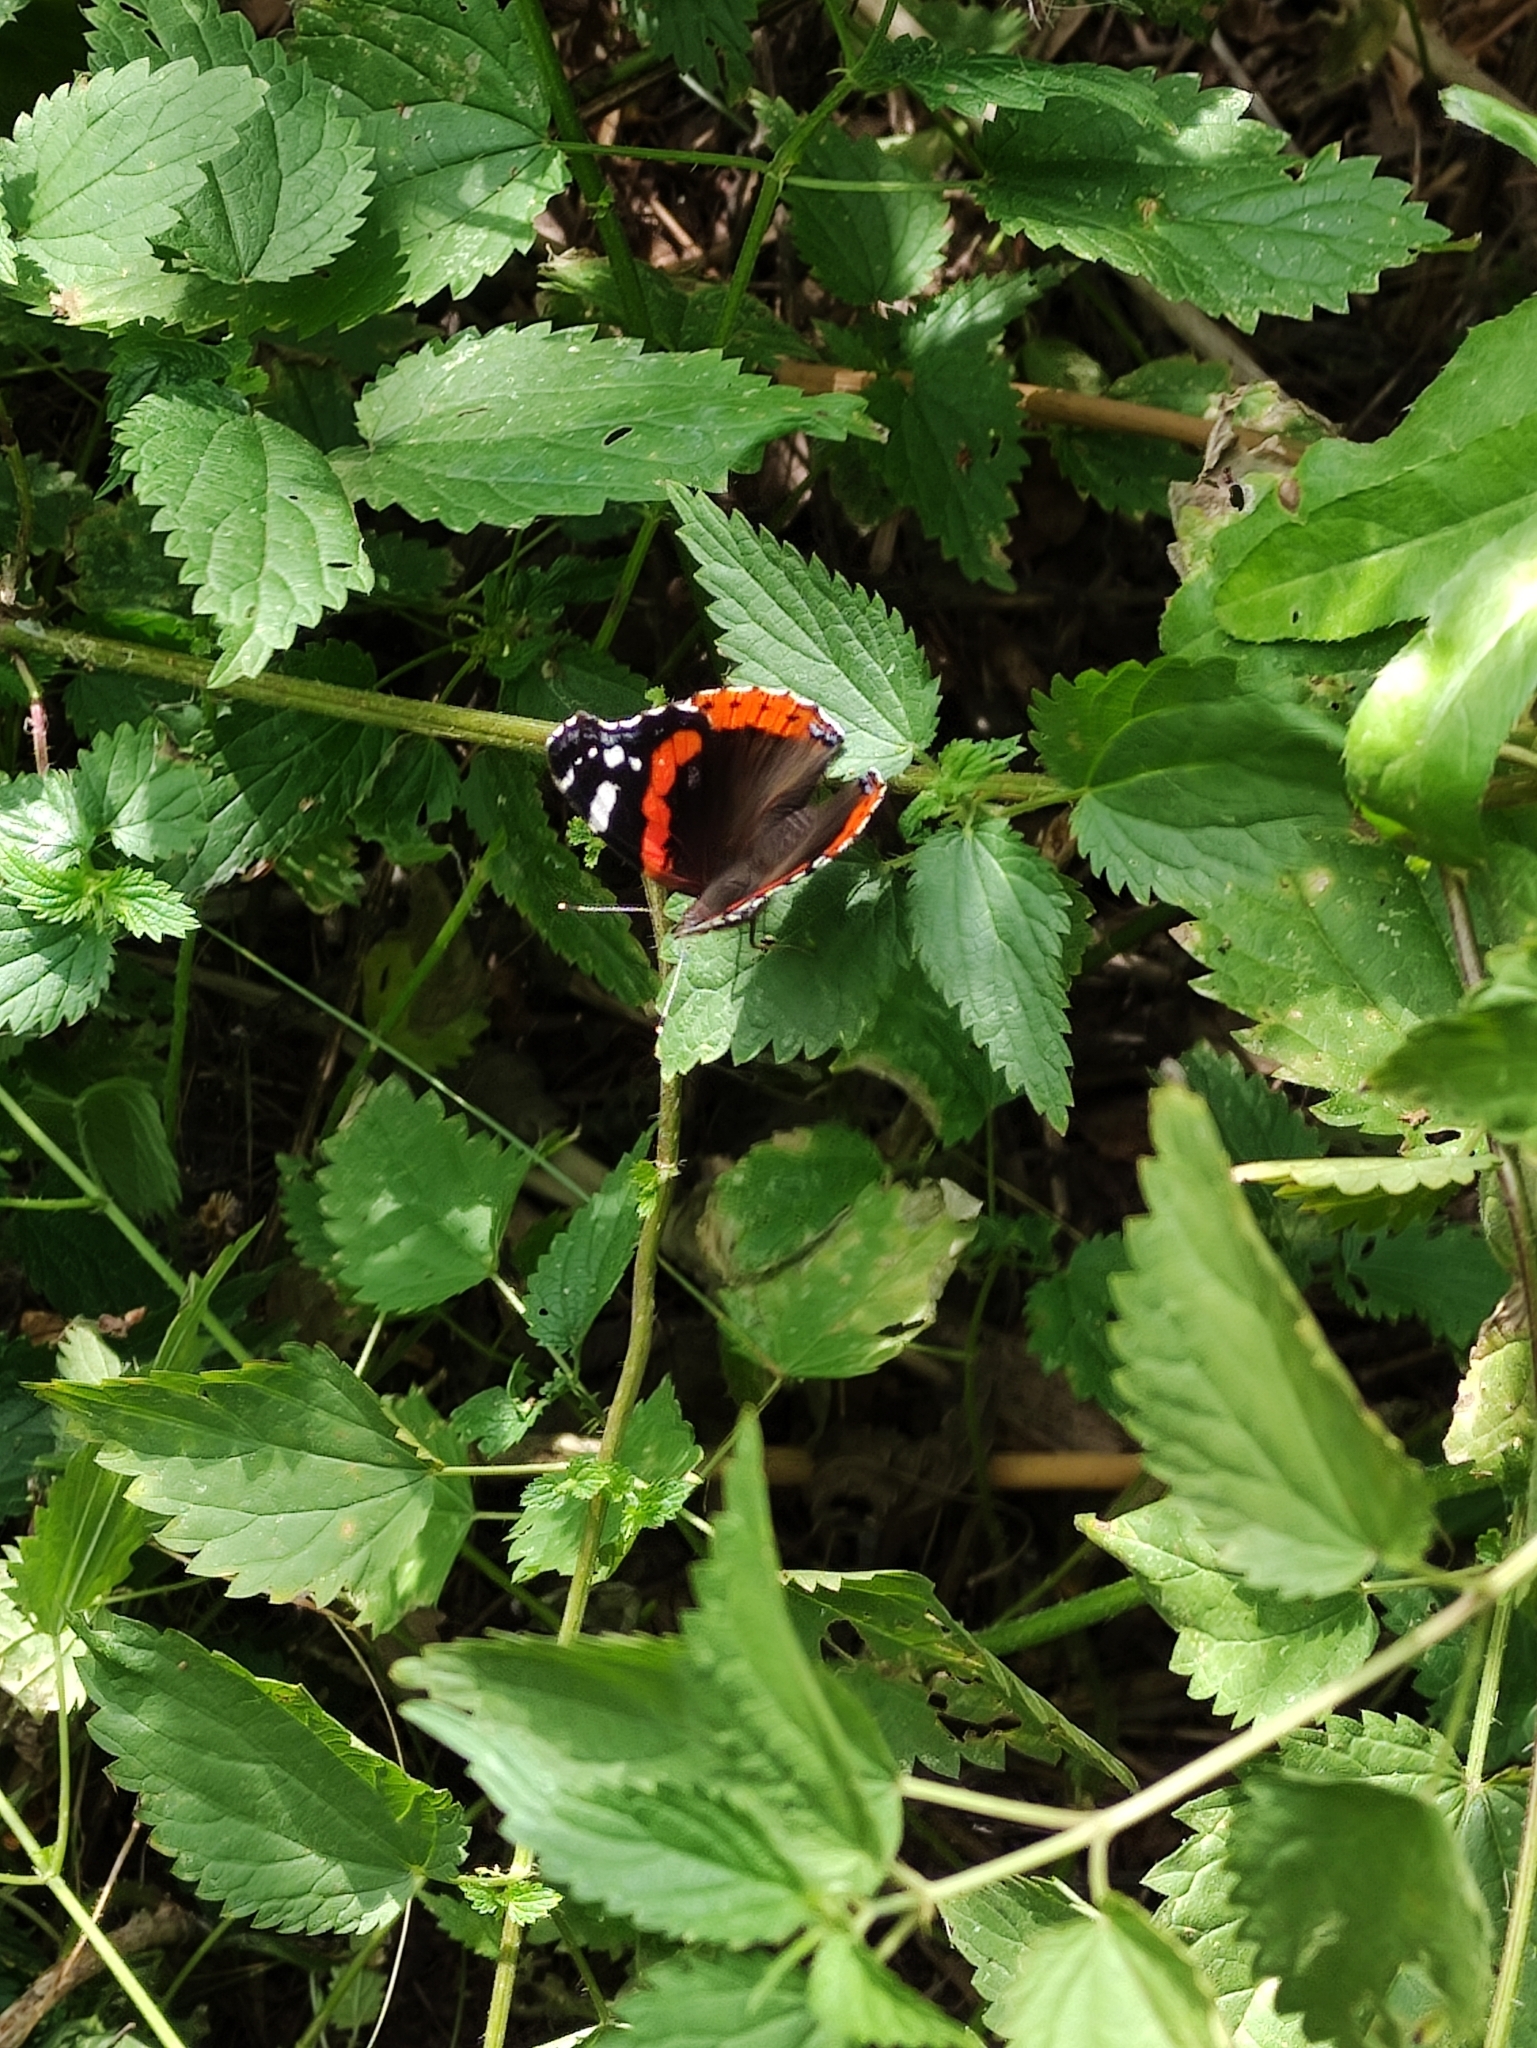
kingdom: Animalia
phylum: Arthropoda
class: Insecta
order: Lepidoptera
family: Nymphalidae
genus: Vanessa
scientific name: Vanessa atalanta
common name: Red admiral
